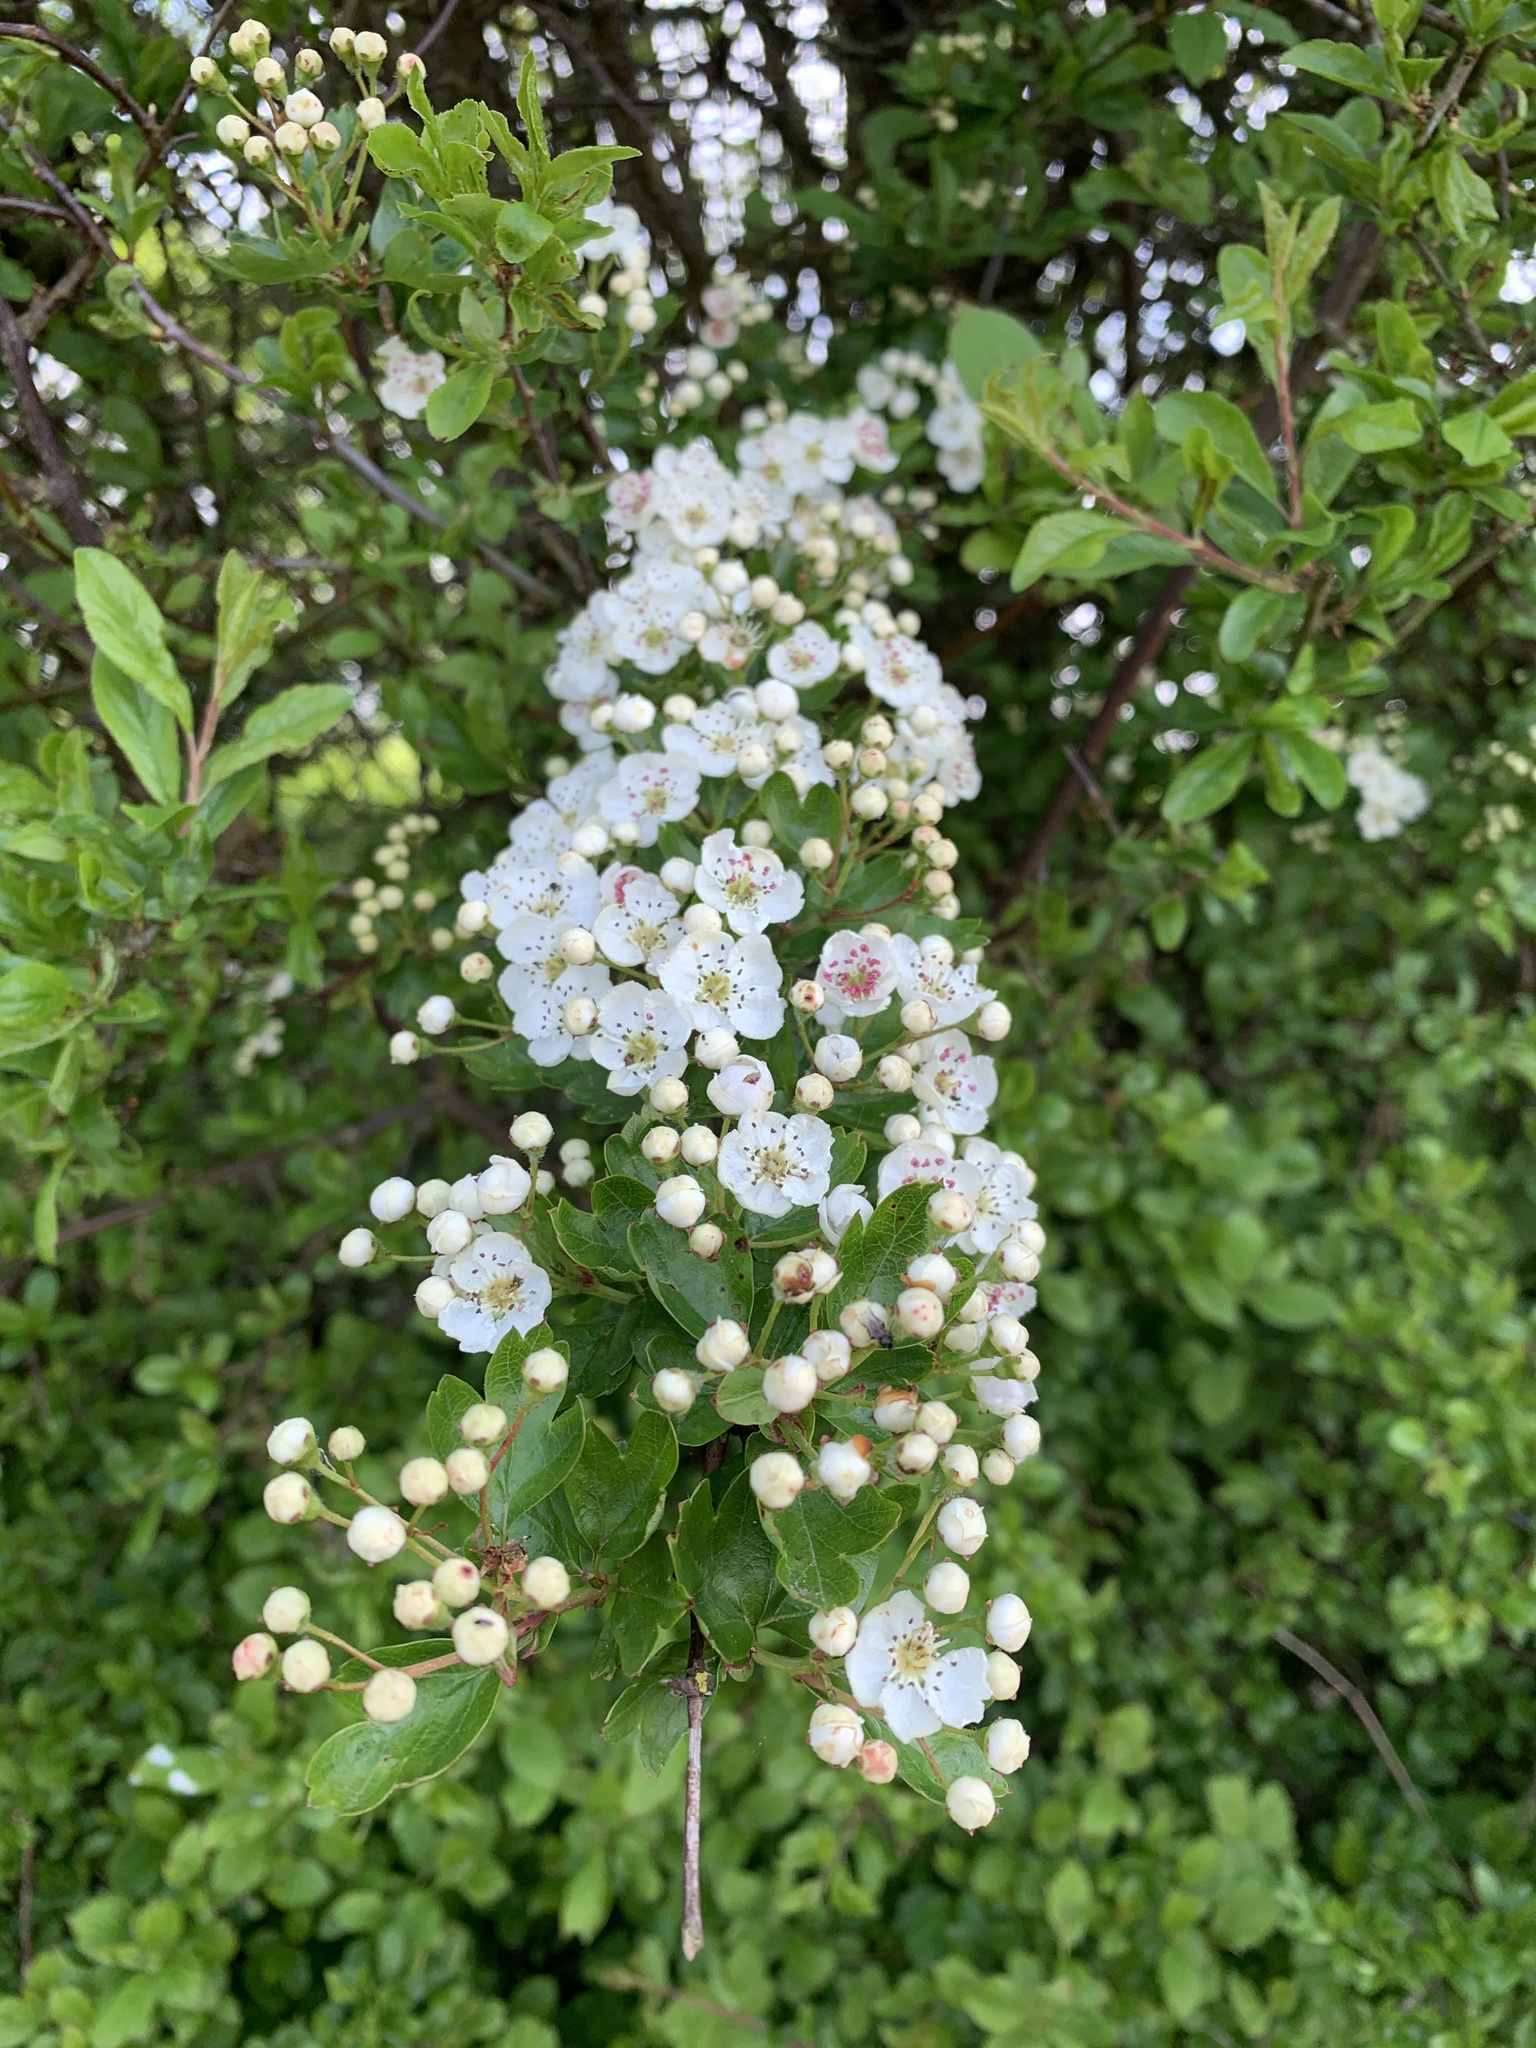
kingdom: Plantae
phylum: Tracheophyta
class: Magnoliopsida
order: Rosales
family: Rosaceae
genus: Crataegus
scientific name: Crataegus monogyna
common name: Hawthorn
